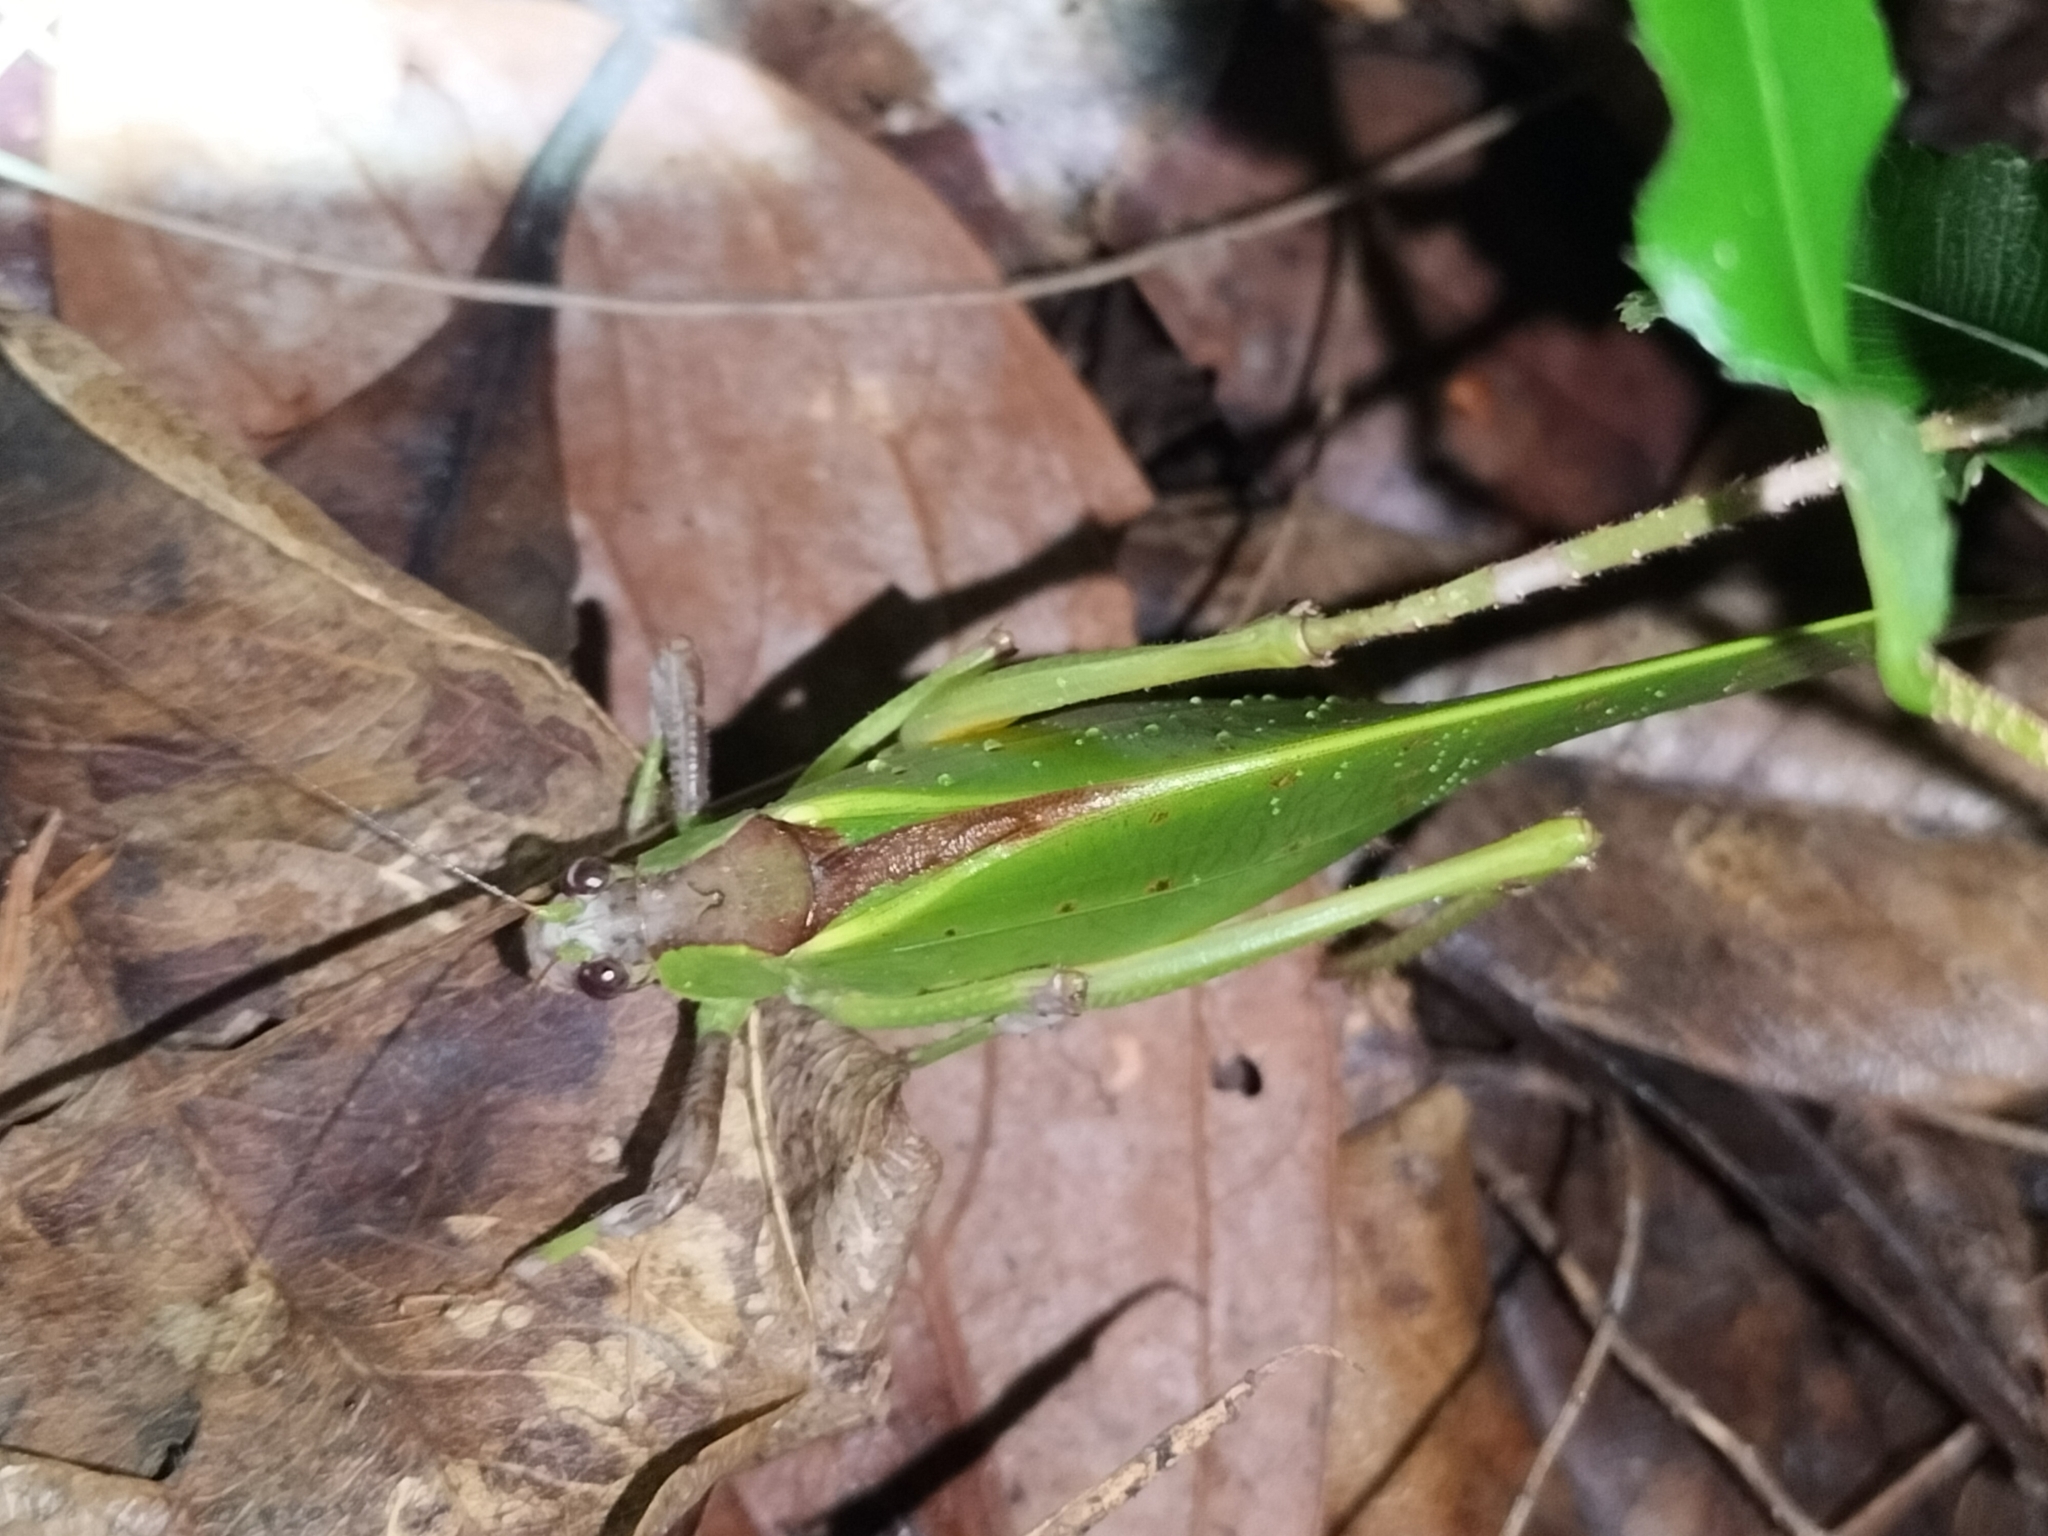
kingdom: Animalia
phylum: Arthropoda
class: Insecta
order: Orthoptera
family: Tettigoniidae
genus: Ephippitytha
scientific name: Ephippitytha kuranda
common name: Kuranda spotted katydid
